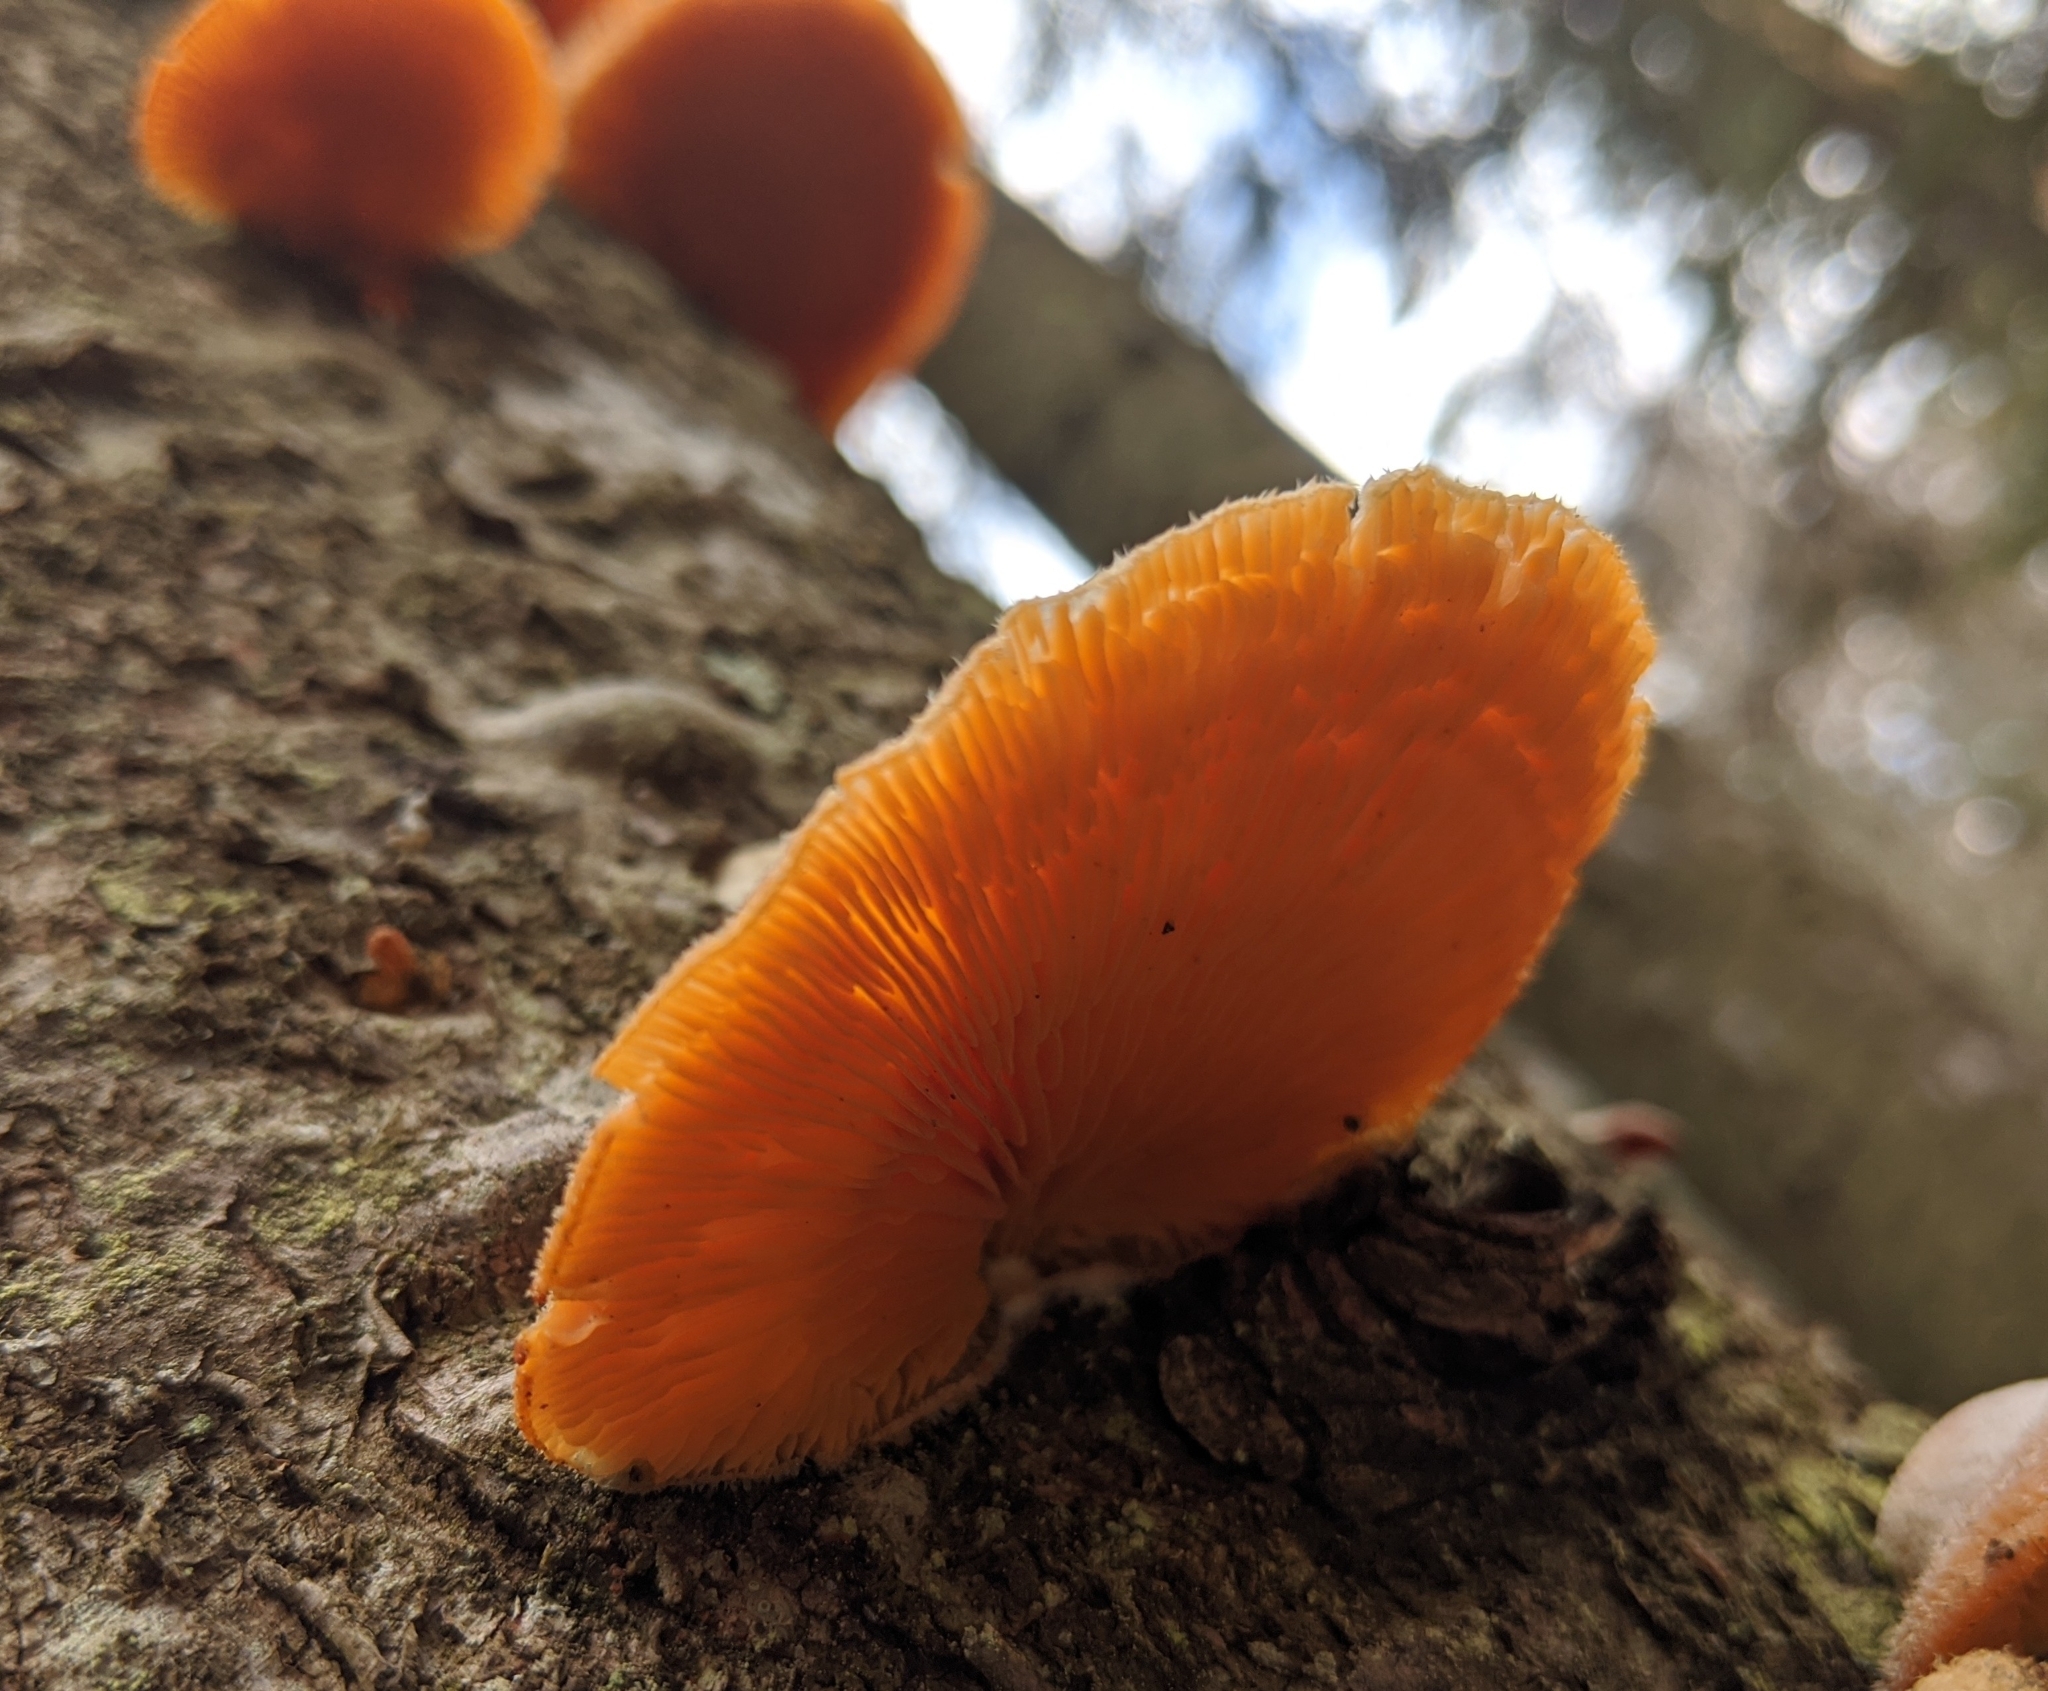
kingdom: Fungi
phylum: Basidiomycota
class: Agaricomycetes
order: Agaricales
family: Phyllotopsidaceae
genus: Phyllotopsis
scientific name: Phyllotopsis nidulans
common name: Orange mock oyster
